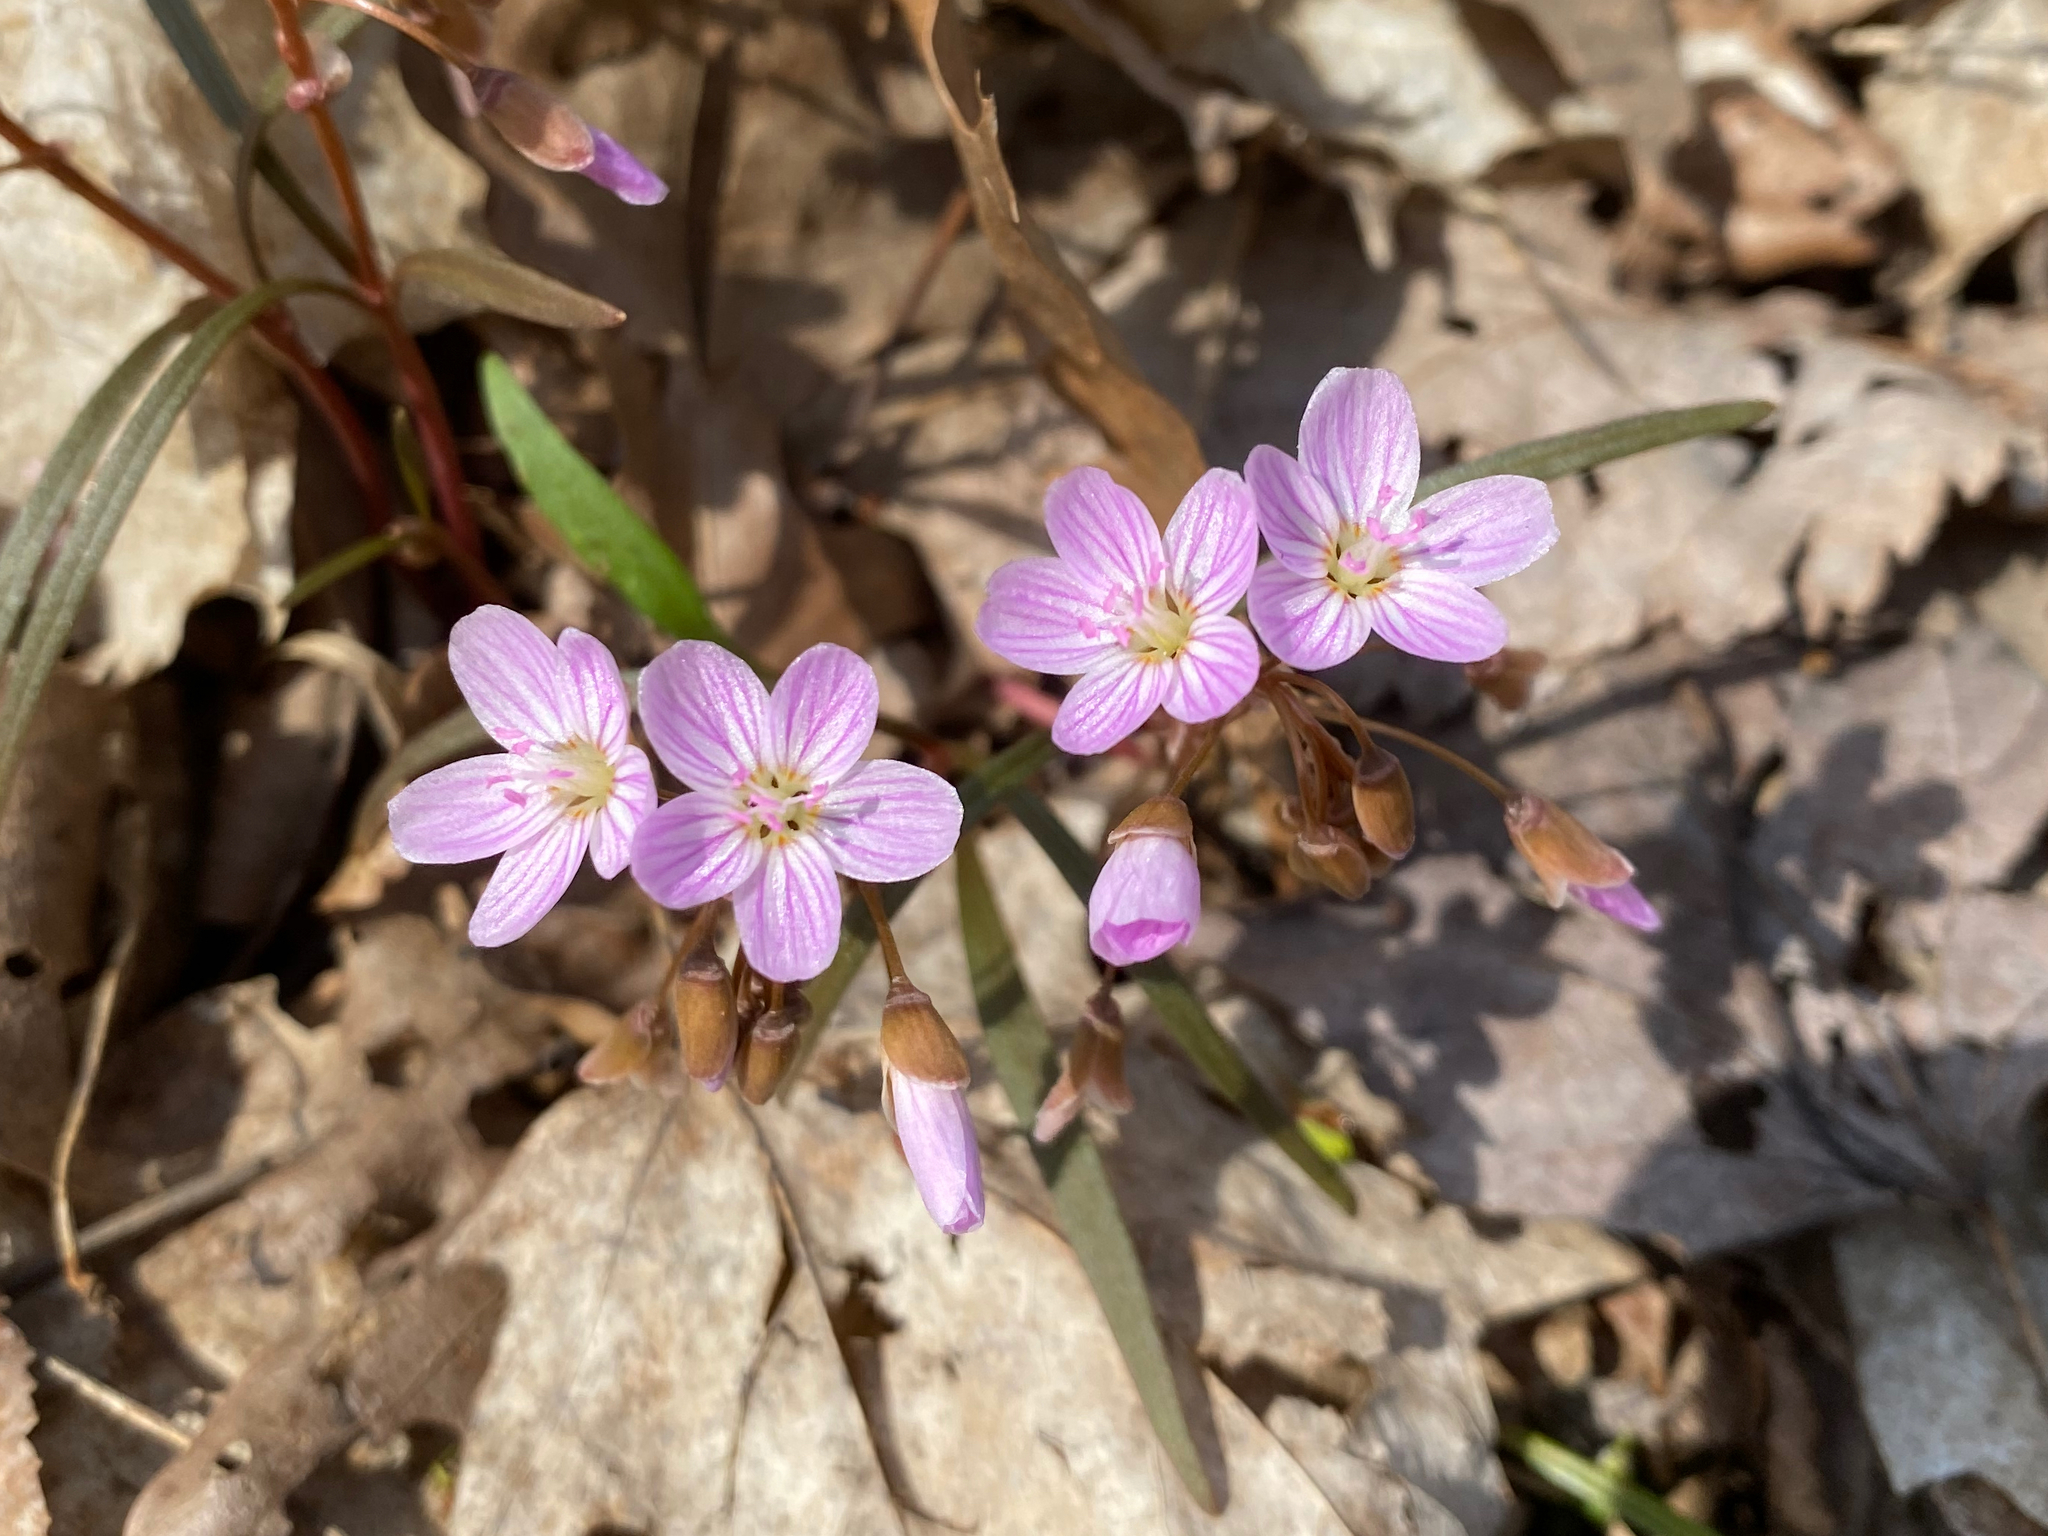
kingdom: Plantae
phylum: Tracheophyta
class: Magnoliopsida
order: Caryophyllales
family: Montiaceae
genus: Claytonia
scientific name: Claytonia virginica
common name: Virginia springbeauty
